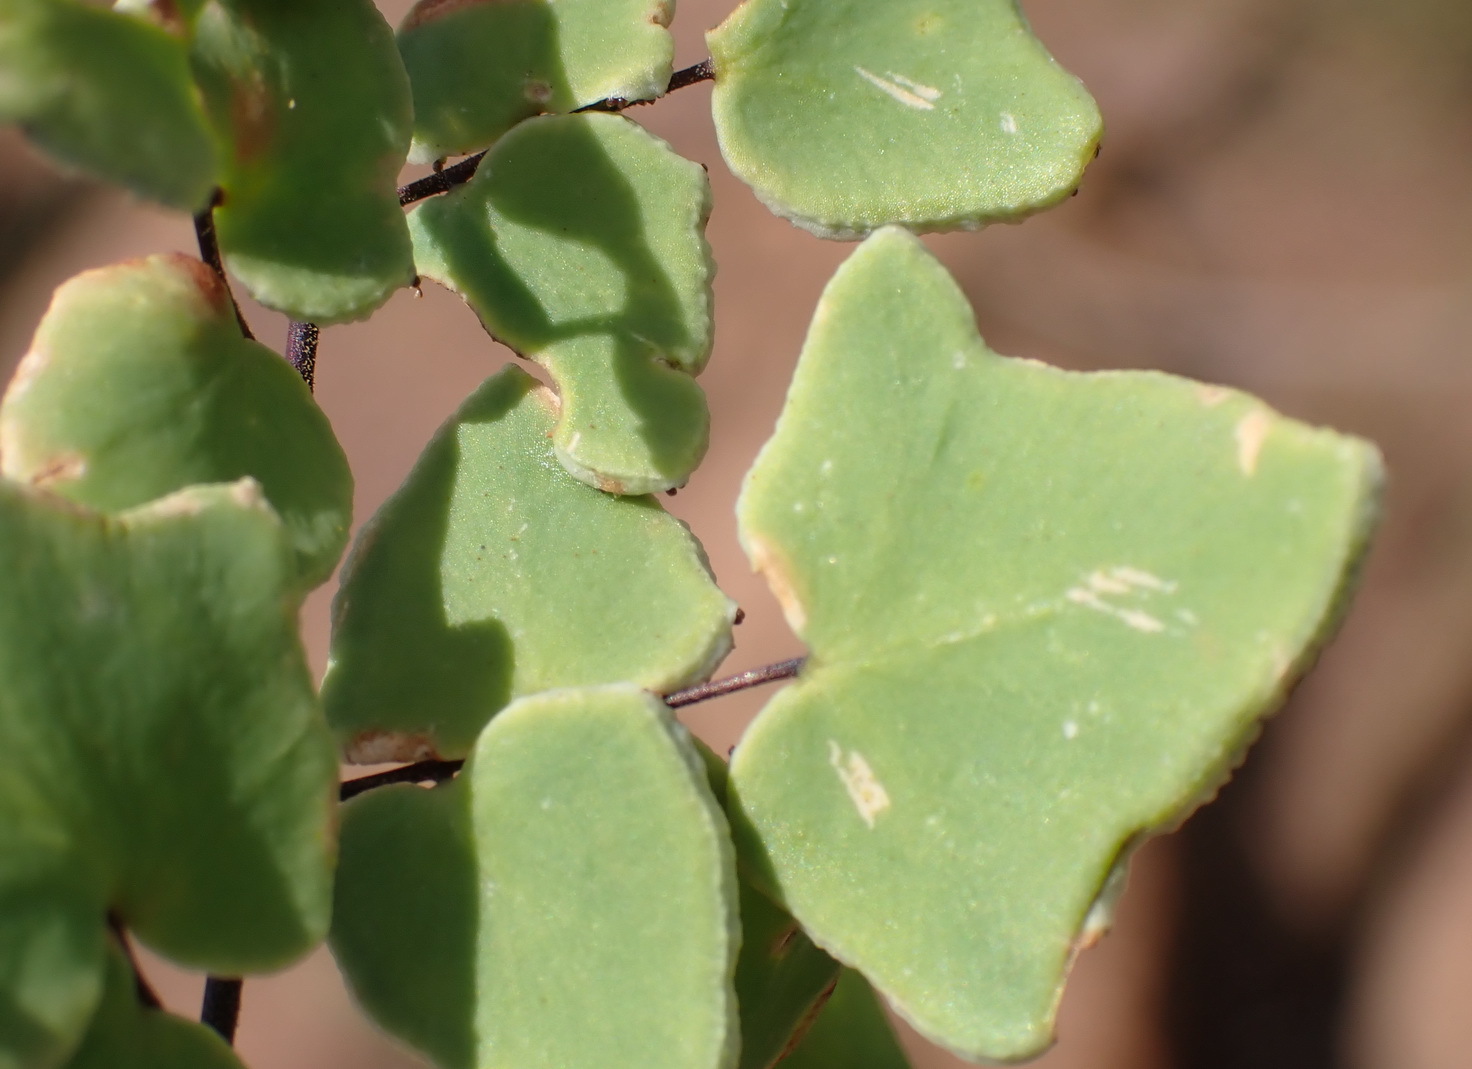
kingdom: Plantae
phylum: Tracheophyta
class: Polypodiopsida
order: Polypodiales
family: Pteridaceae
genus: Pellaea
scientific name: Pellaea calomelanos
